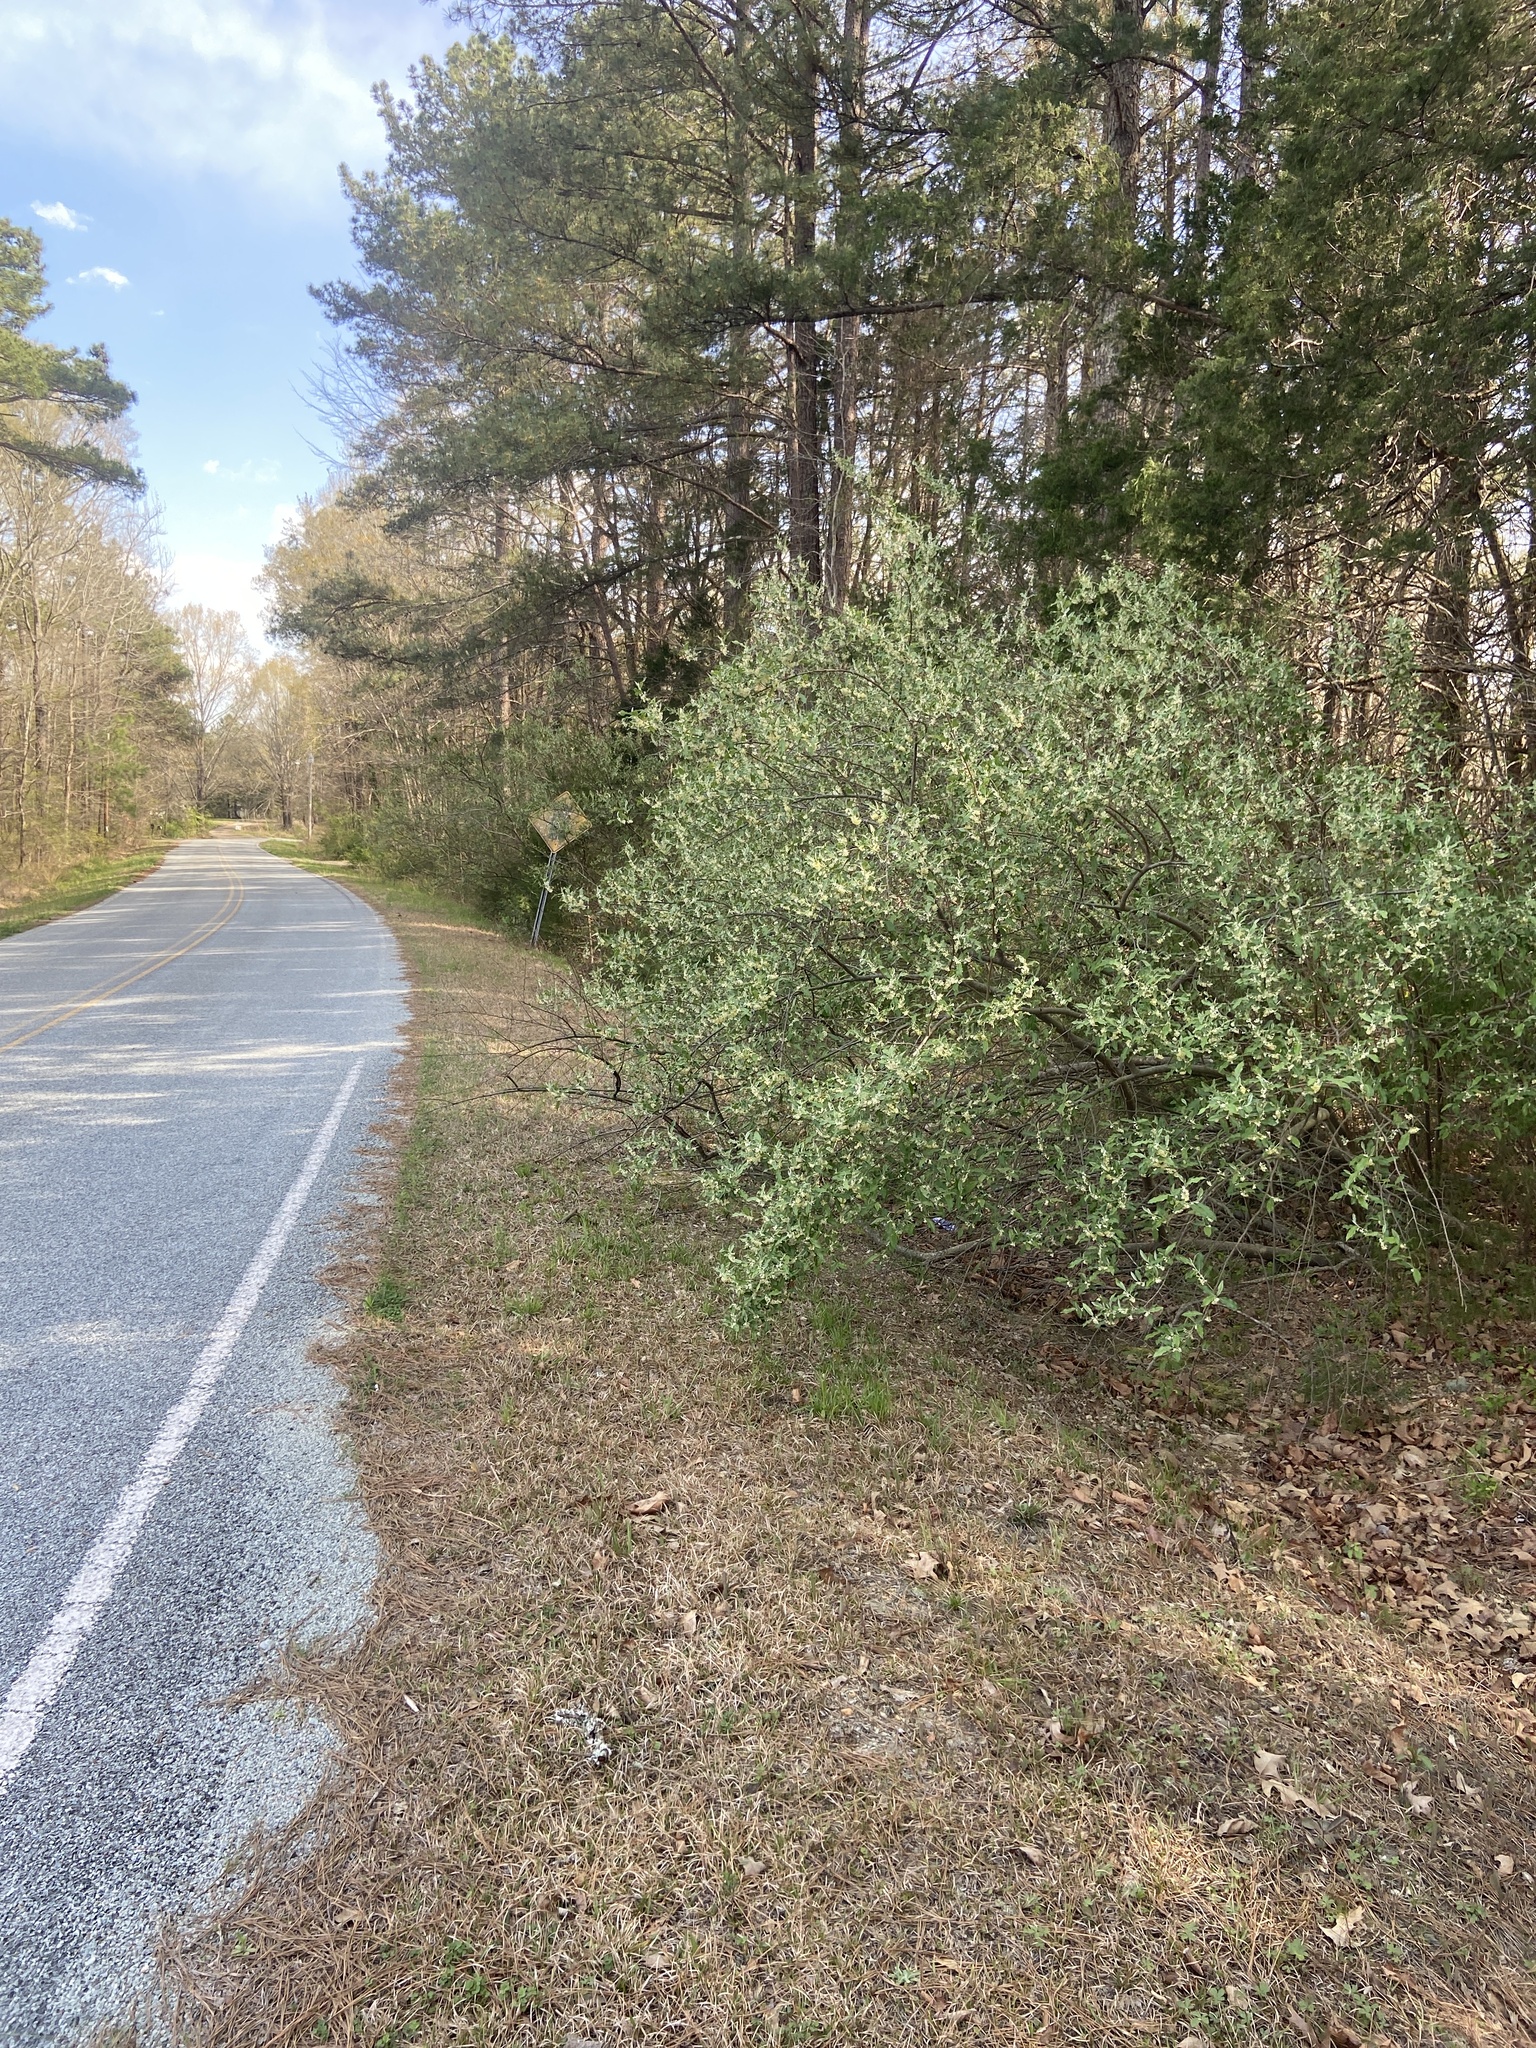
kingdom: Plantae
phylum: Tracheophyta
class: Magnoliopsida
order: Rosales
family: Elaeagnaceae
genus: Elaeagnus
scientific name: Elaeagnus umbellata
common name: Autumn olive
